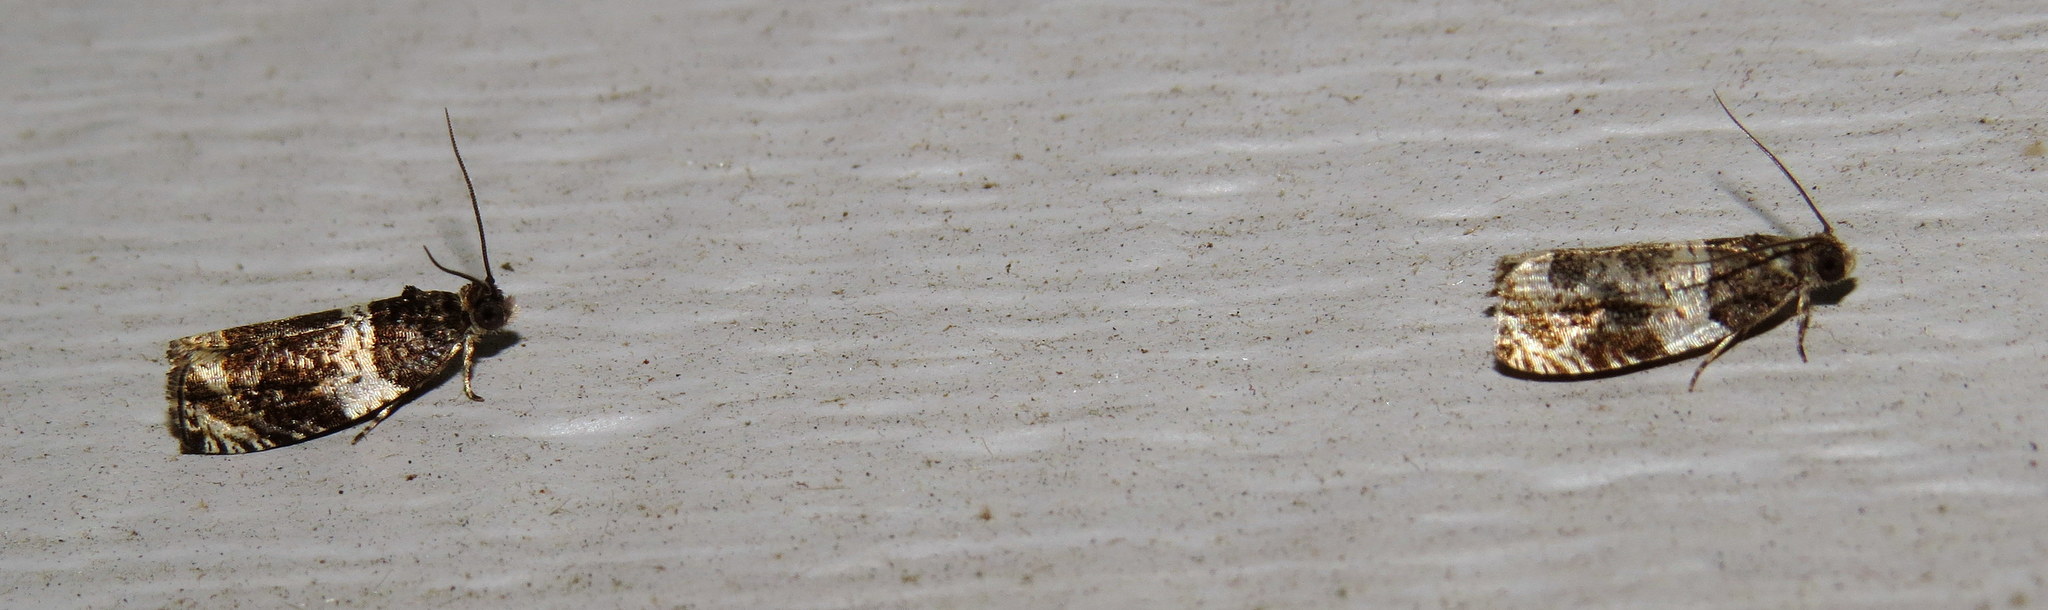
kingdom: Animalia
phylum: Arthropoda
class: Insecta
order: Lepidoptera
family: Tortricidae
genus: Orthotaenia
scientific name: Orthotaenia undulana
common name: Woodland marble
